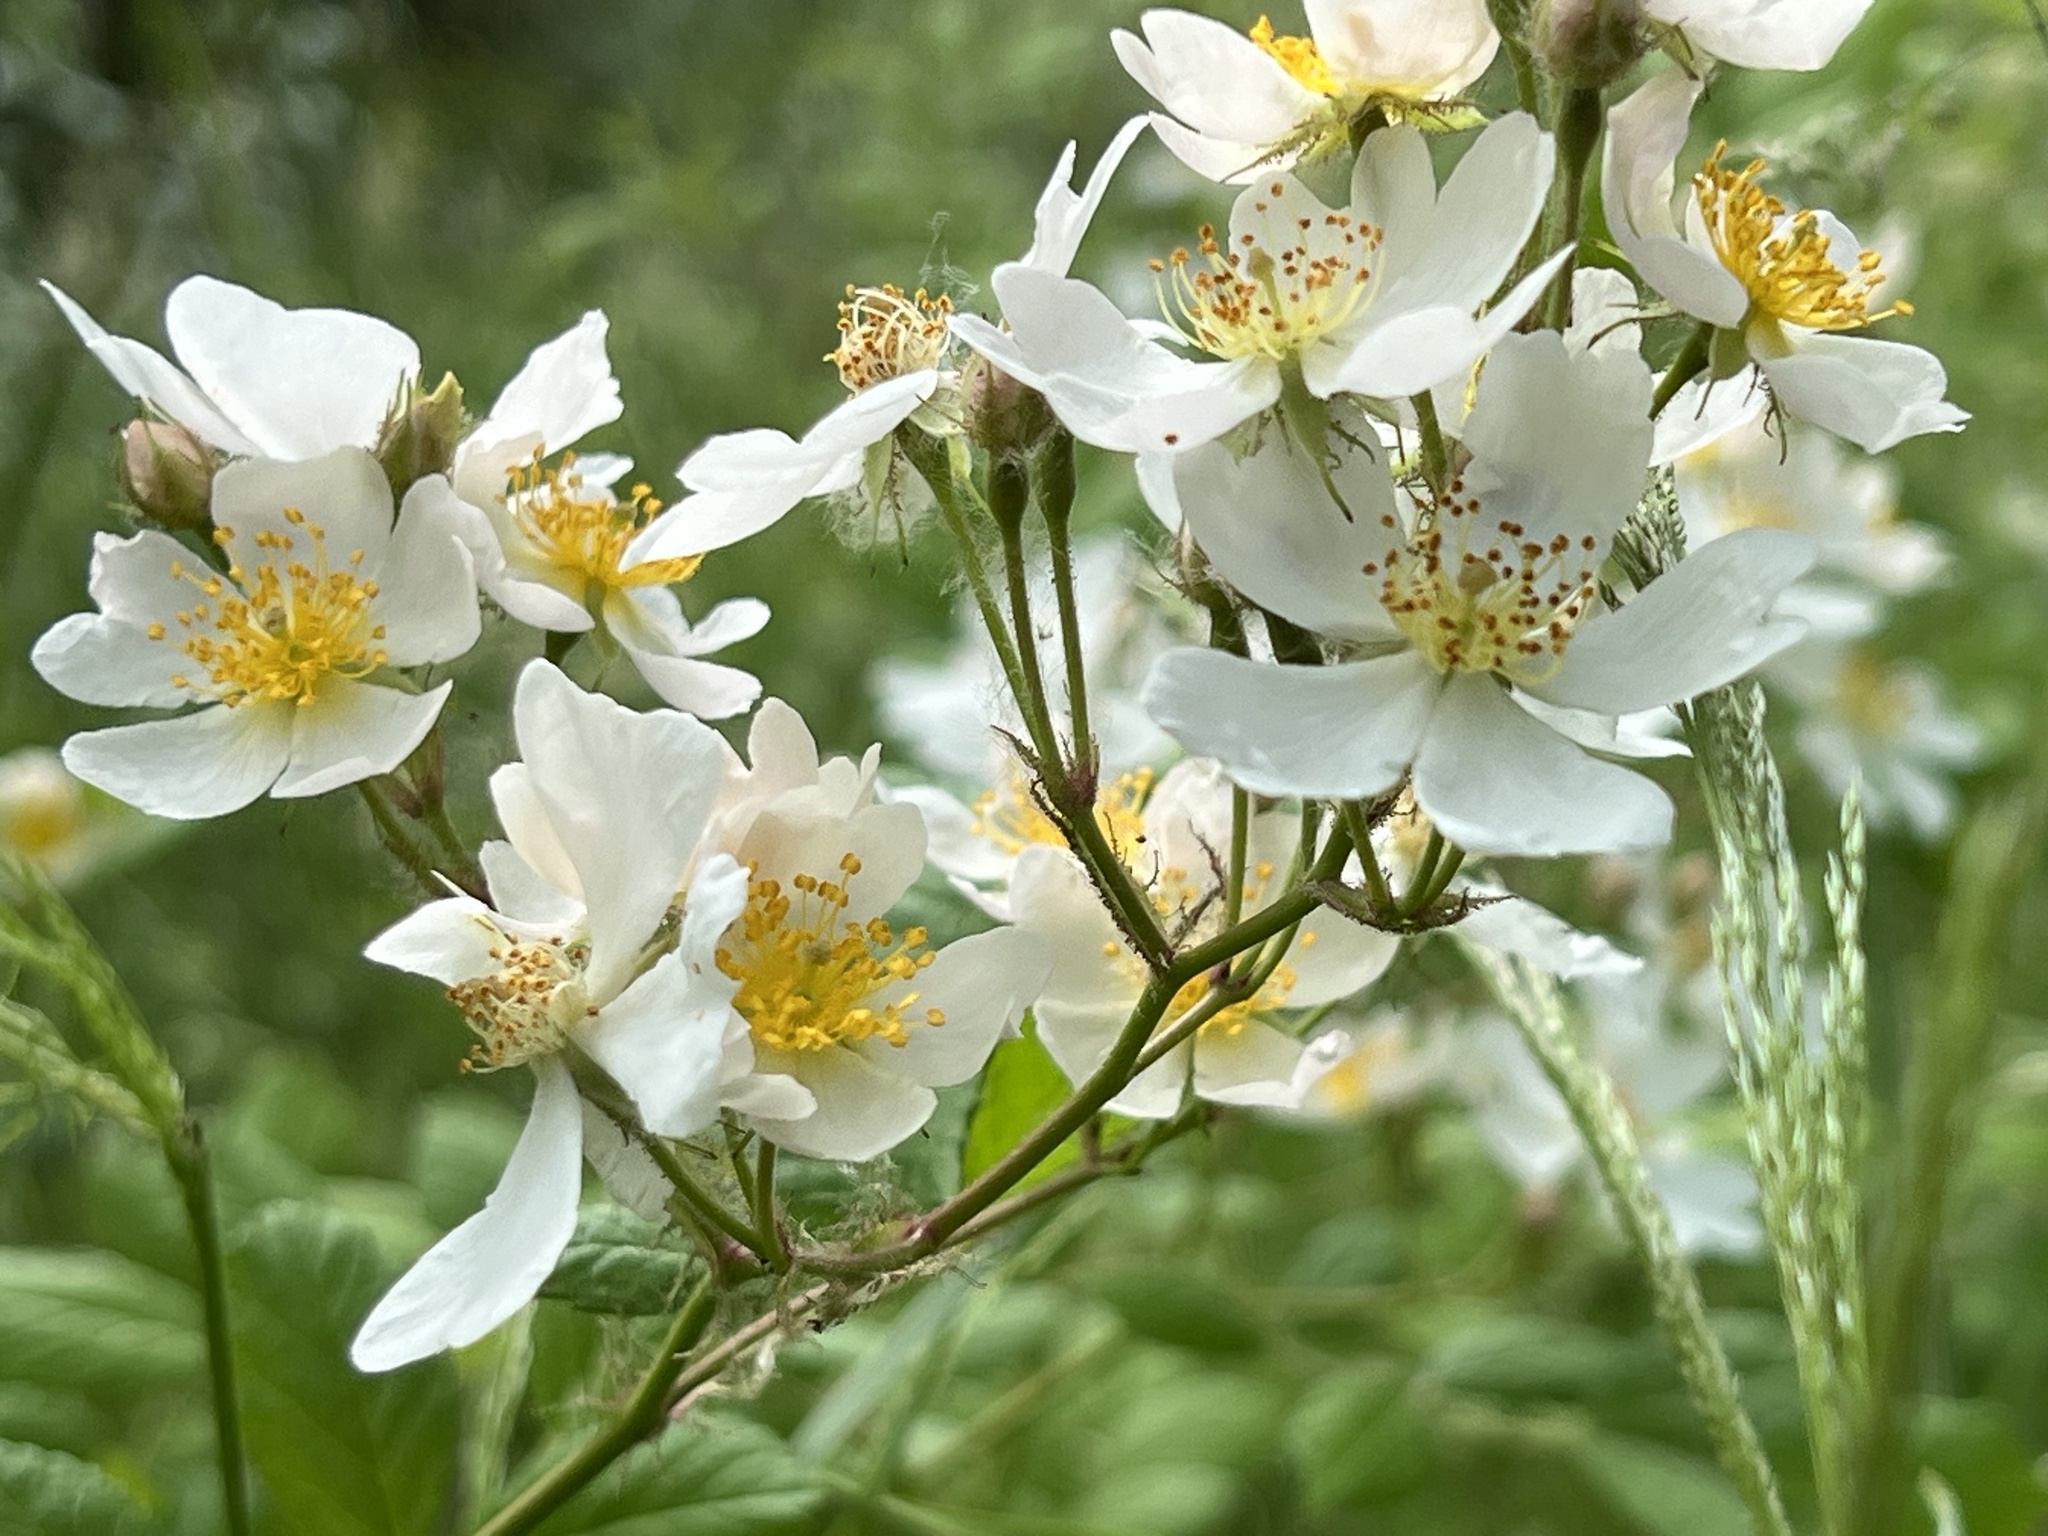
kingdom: Plantae
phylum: Tracheophyta
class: Magnoliopsida
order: Rosales
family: Rosaceae
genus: Rosa
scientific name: Rosa multiflora
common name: Multiflora rose
